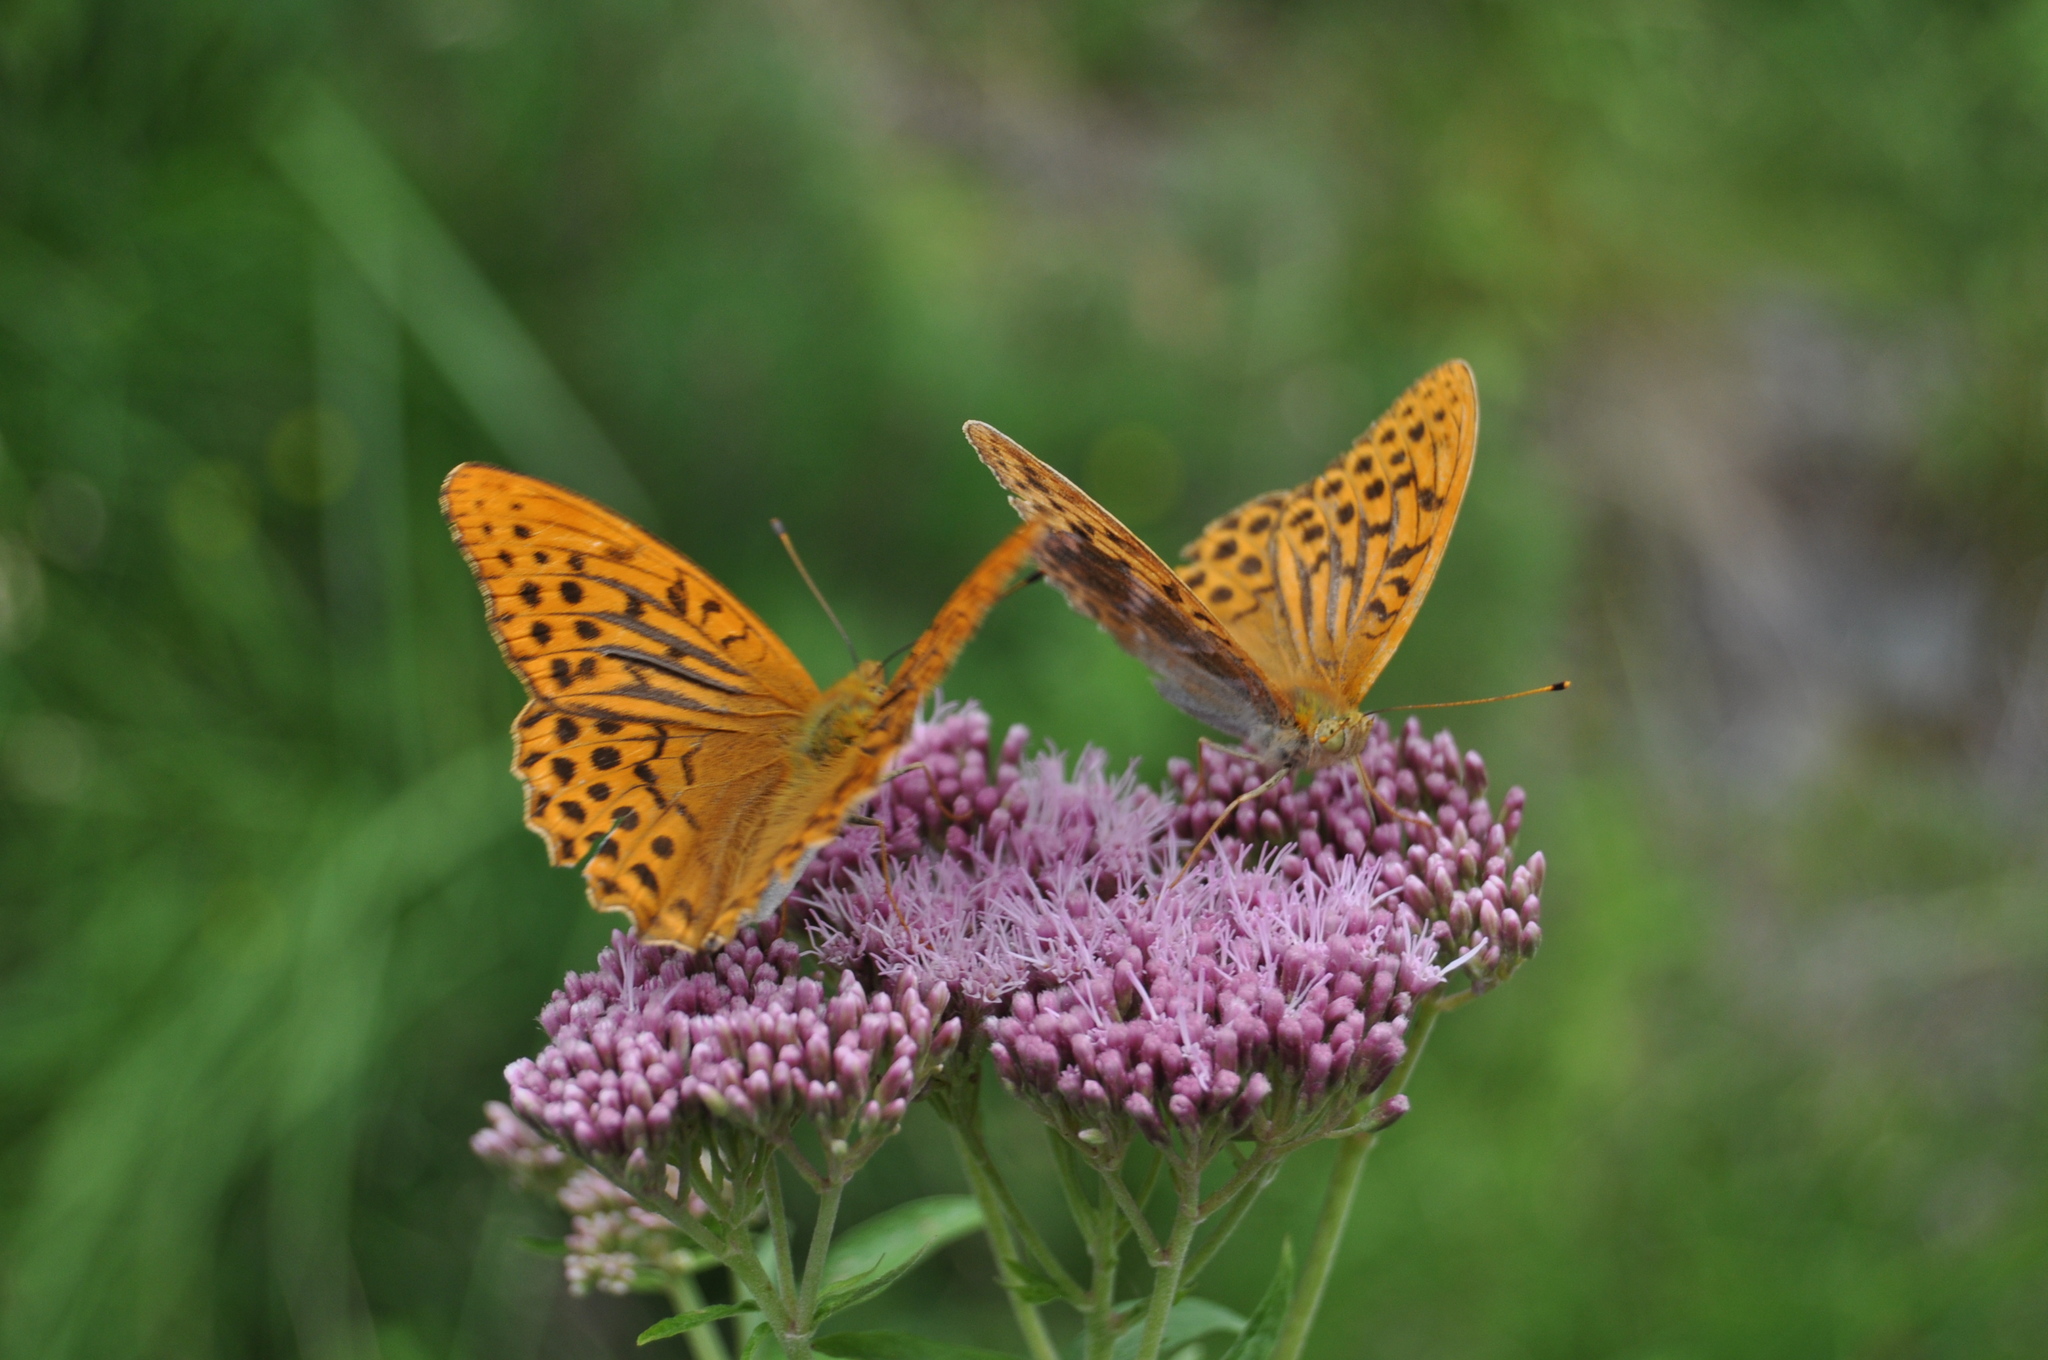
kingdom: Animalia
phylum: Arthropoda
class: Insecta
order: Lepidoptera
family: Nymphalidae
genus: Argynnis
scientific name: Argynnis paphia
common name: Silver-washed fritillary
